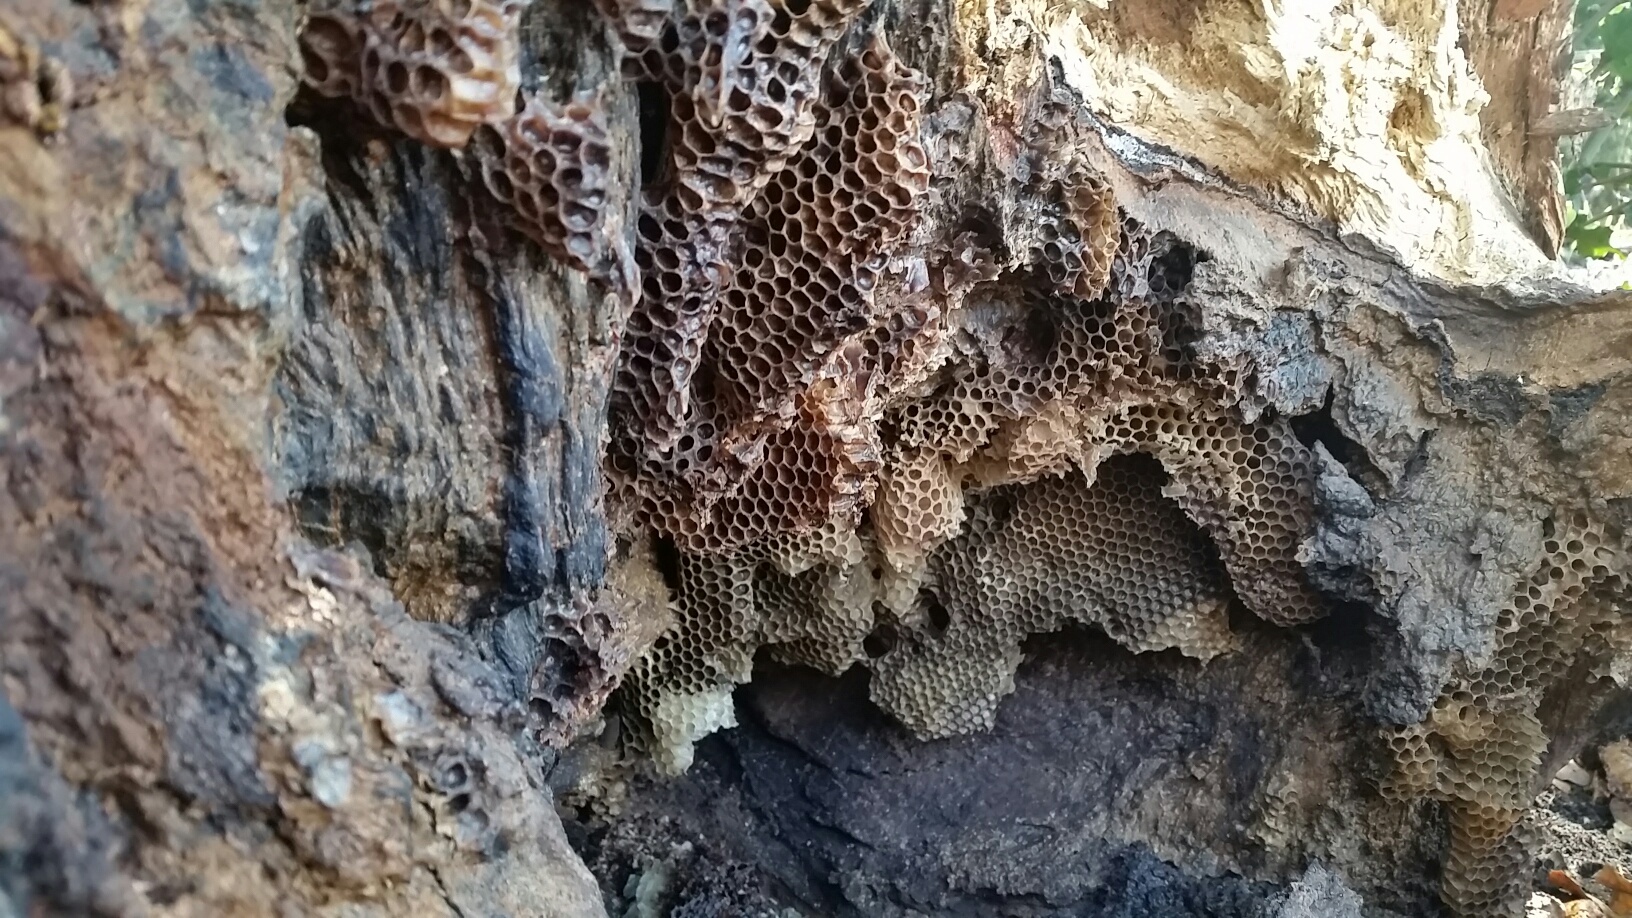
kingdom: Animalia
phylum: Arthropoda
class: Insecta
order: Hymenoptera
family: Apidae
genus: Apis
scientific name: Apis mellifera
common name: Honey bee
